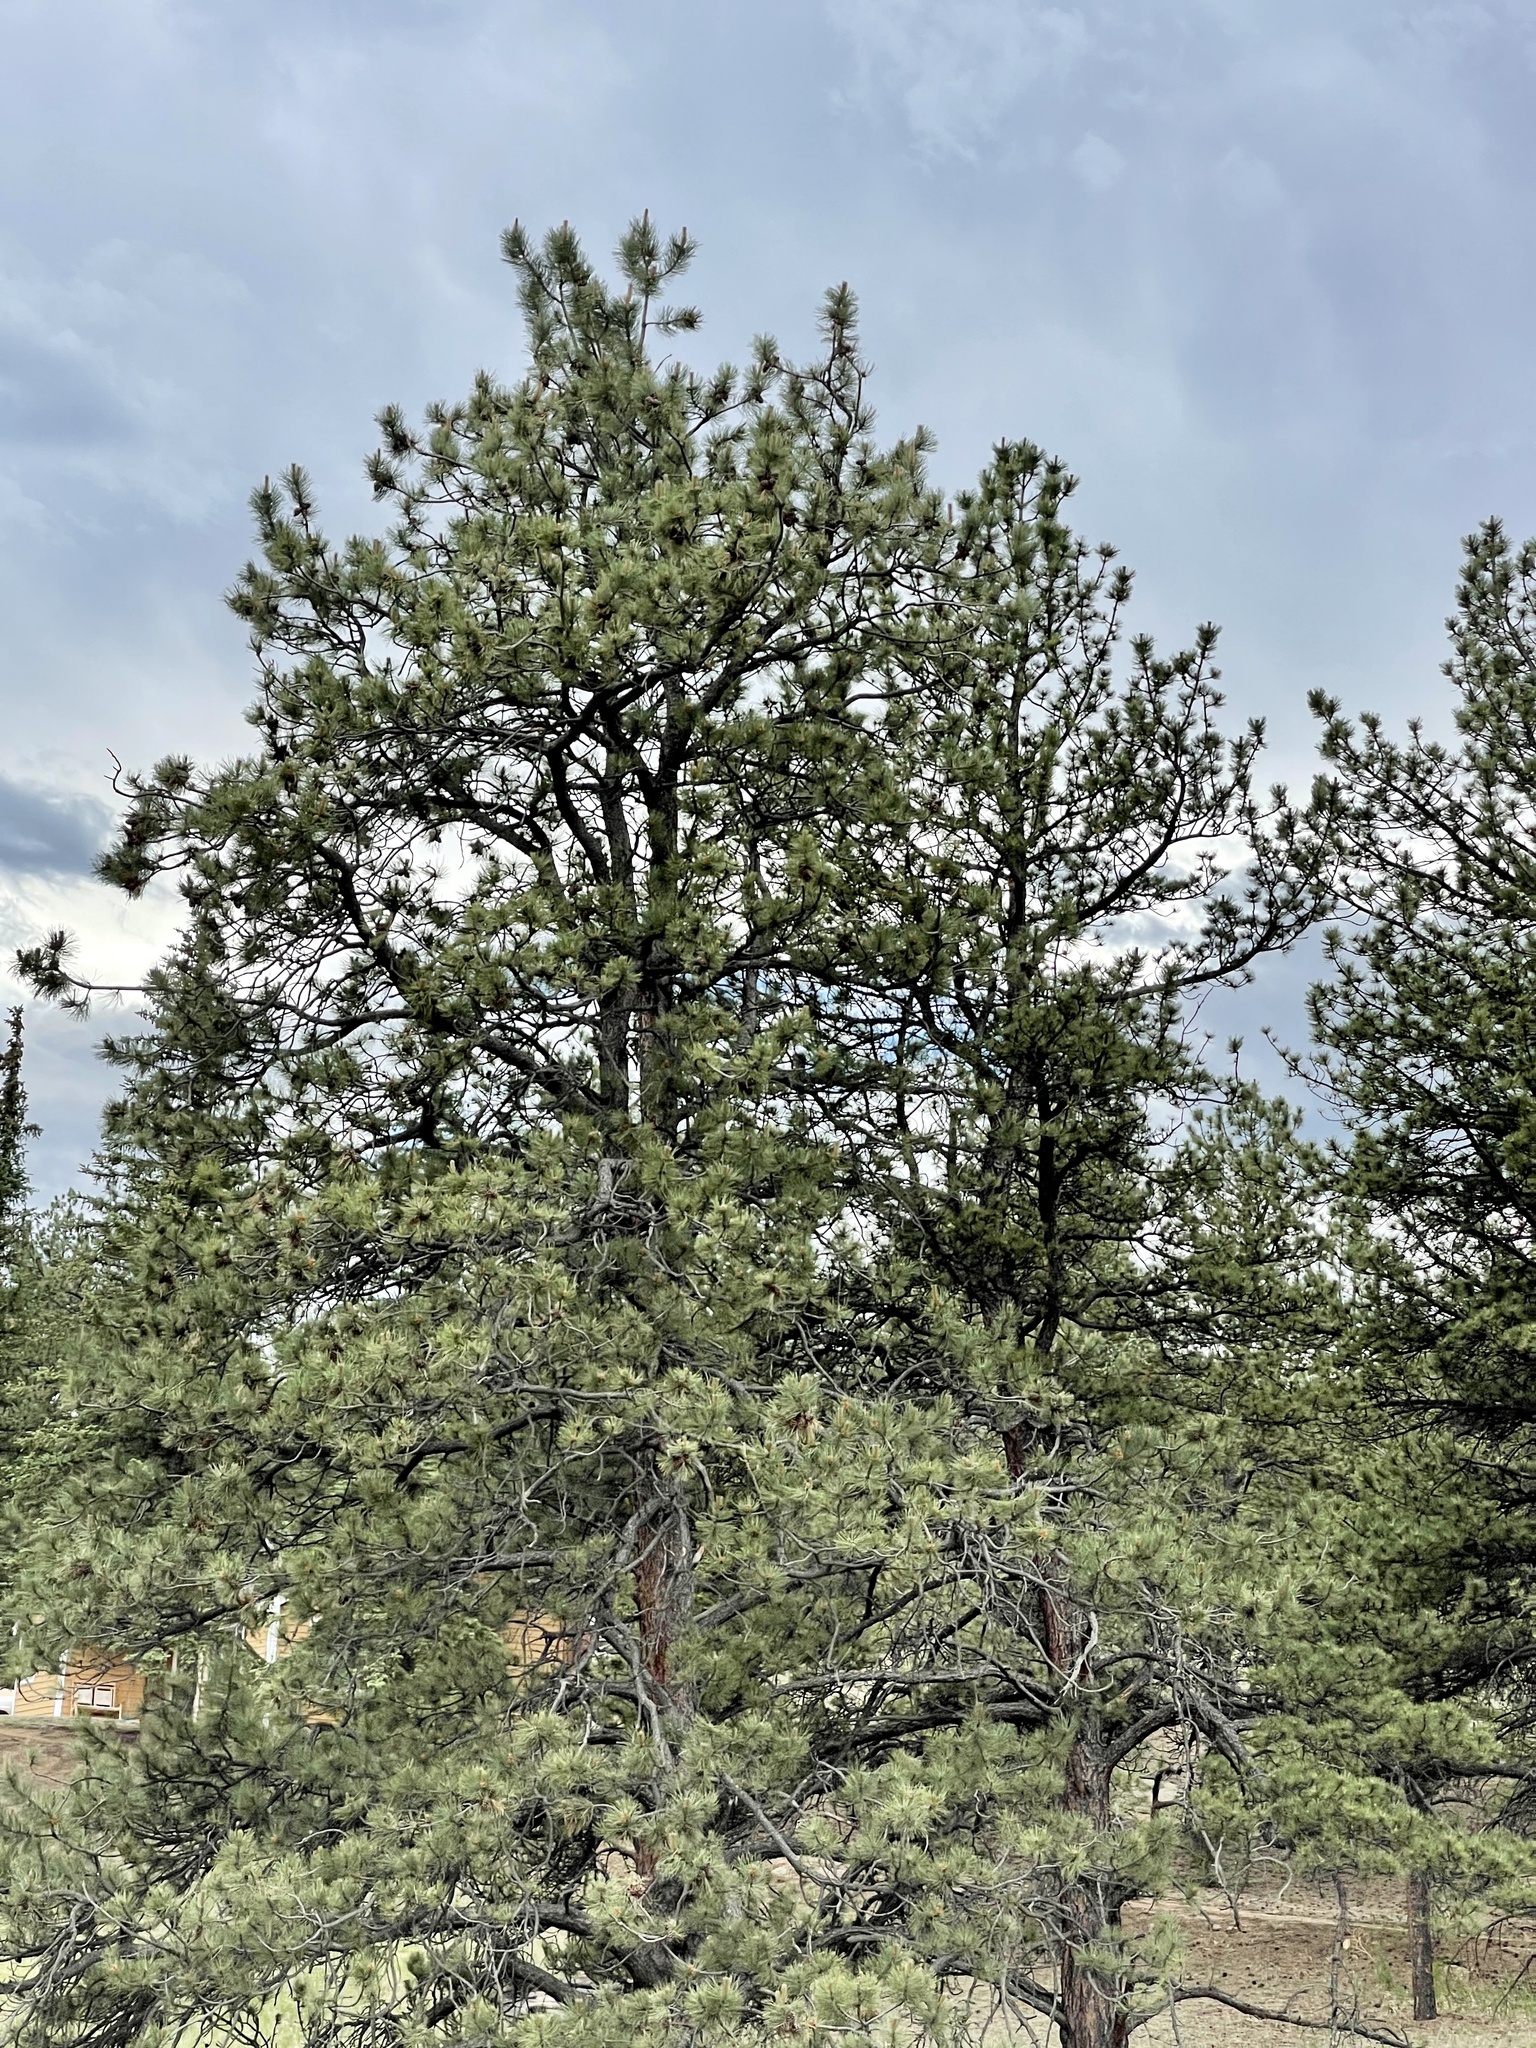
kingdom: Plantae
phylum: Tracheophyta
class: Pinopsida
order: Pinales
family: Pinaceae
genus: Pinus
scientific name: Pinus ponderosa
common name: Western yellow-pine
